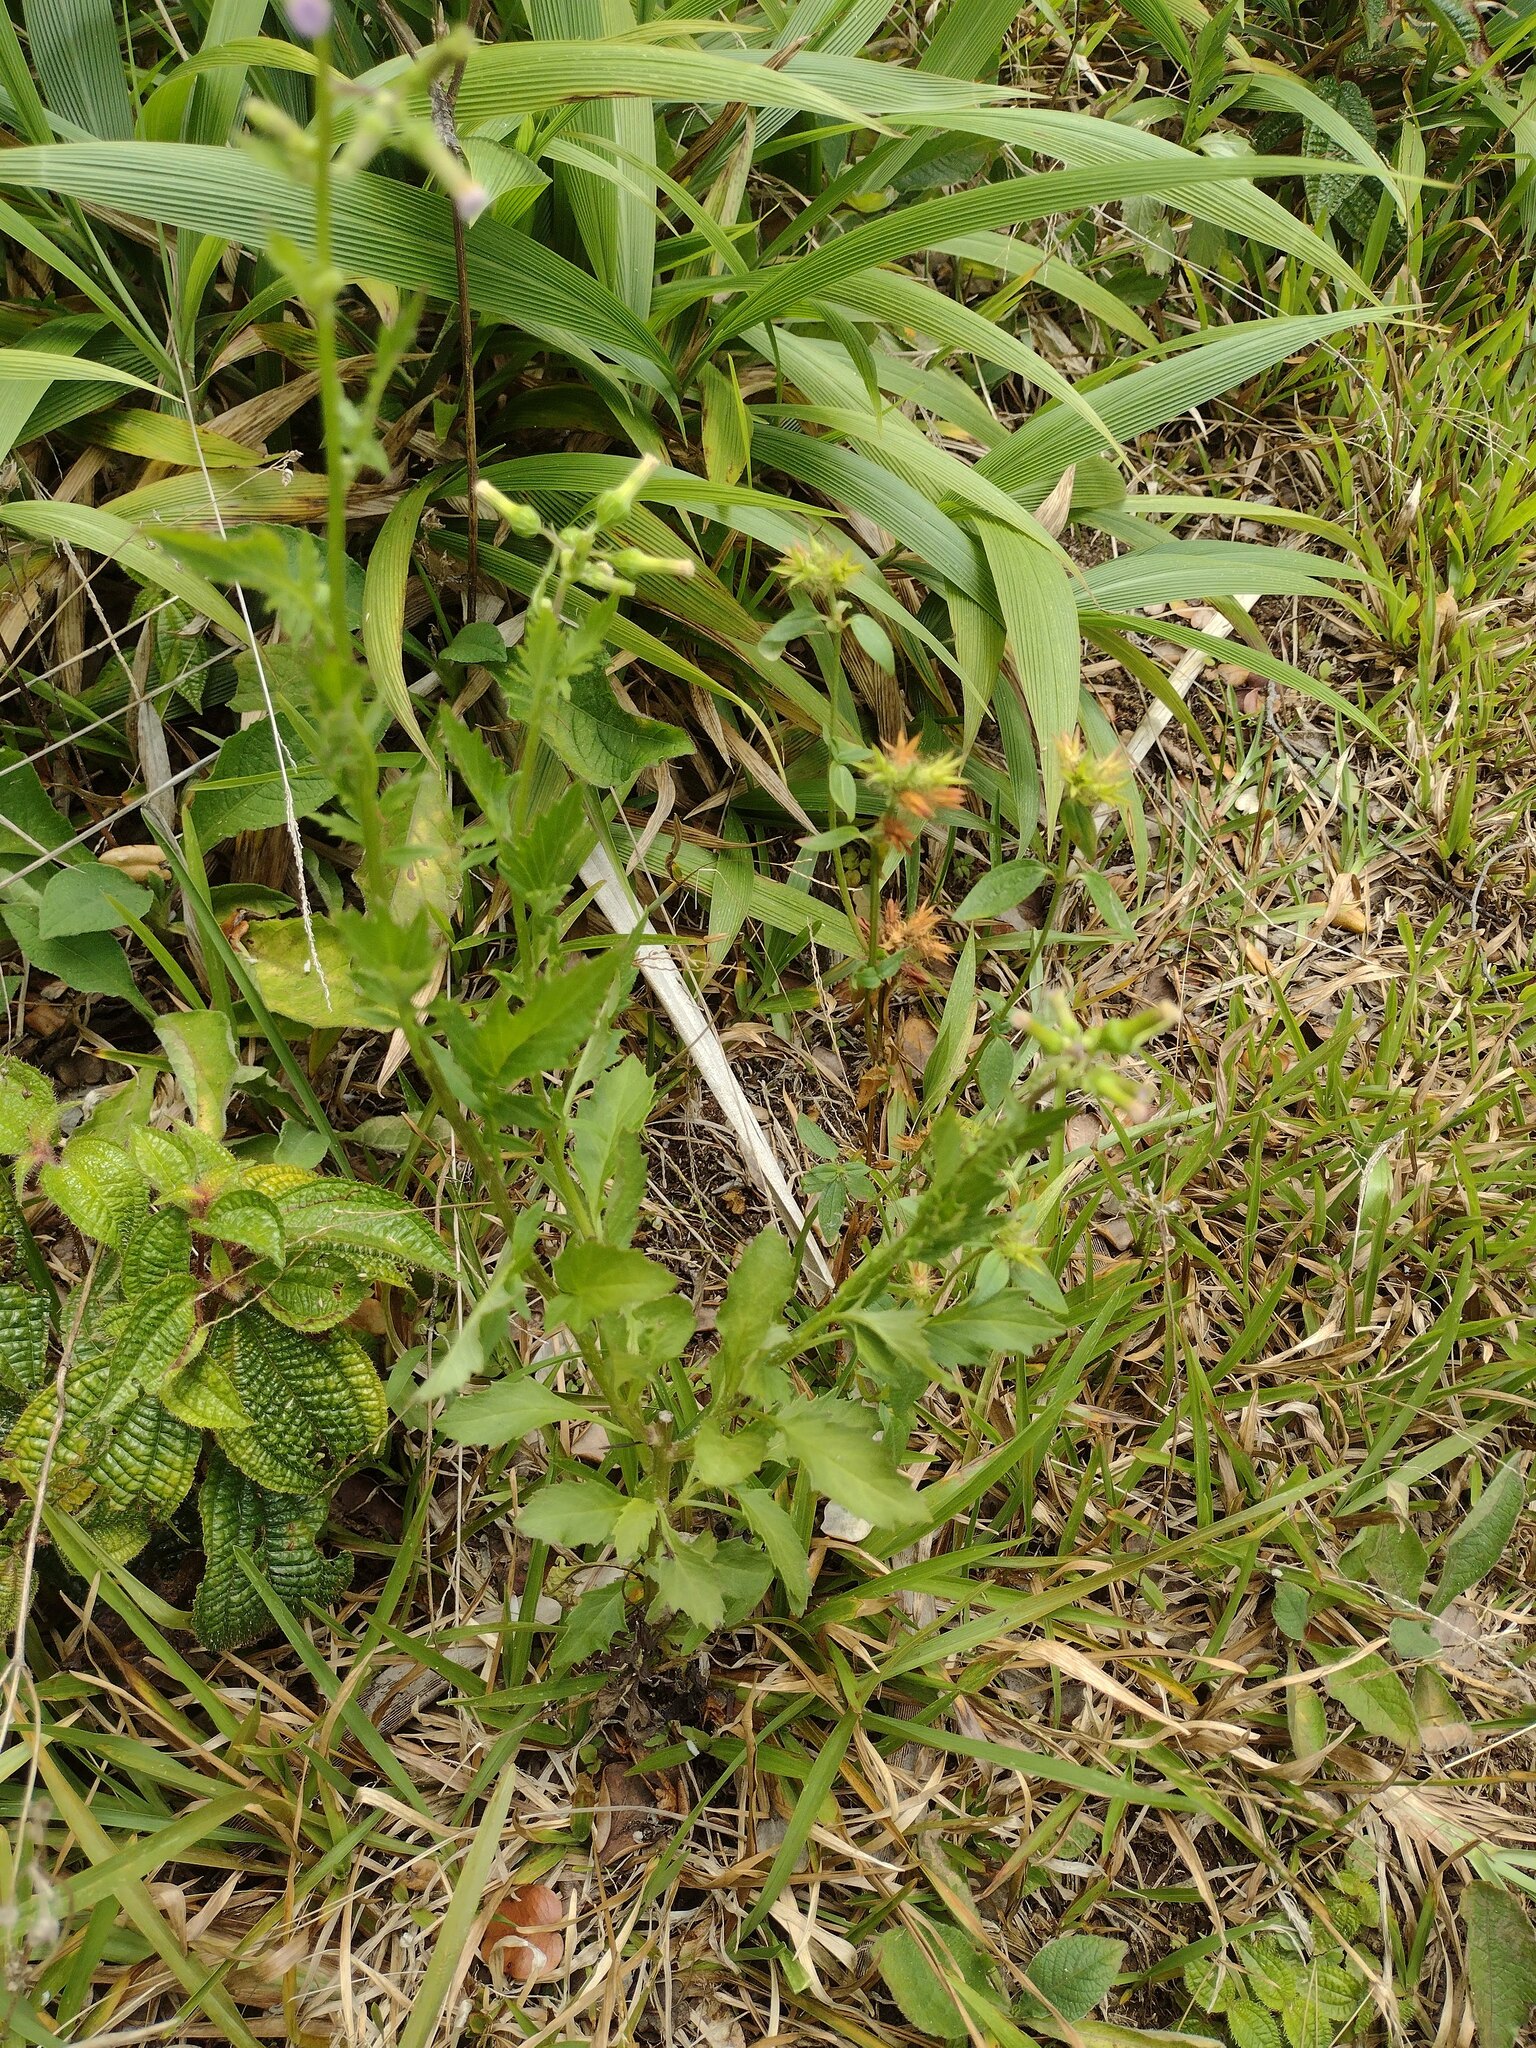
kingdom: Plantae
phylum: Tracheophyta
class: Magnoliopsida
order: Asterales
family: Asteraceae
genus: Erechtites
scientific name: Erechtites valerianifolius
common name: Tropical burnweed
